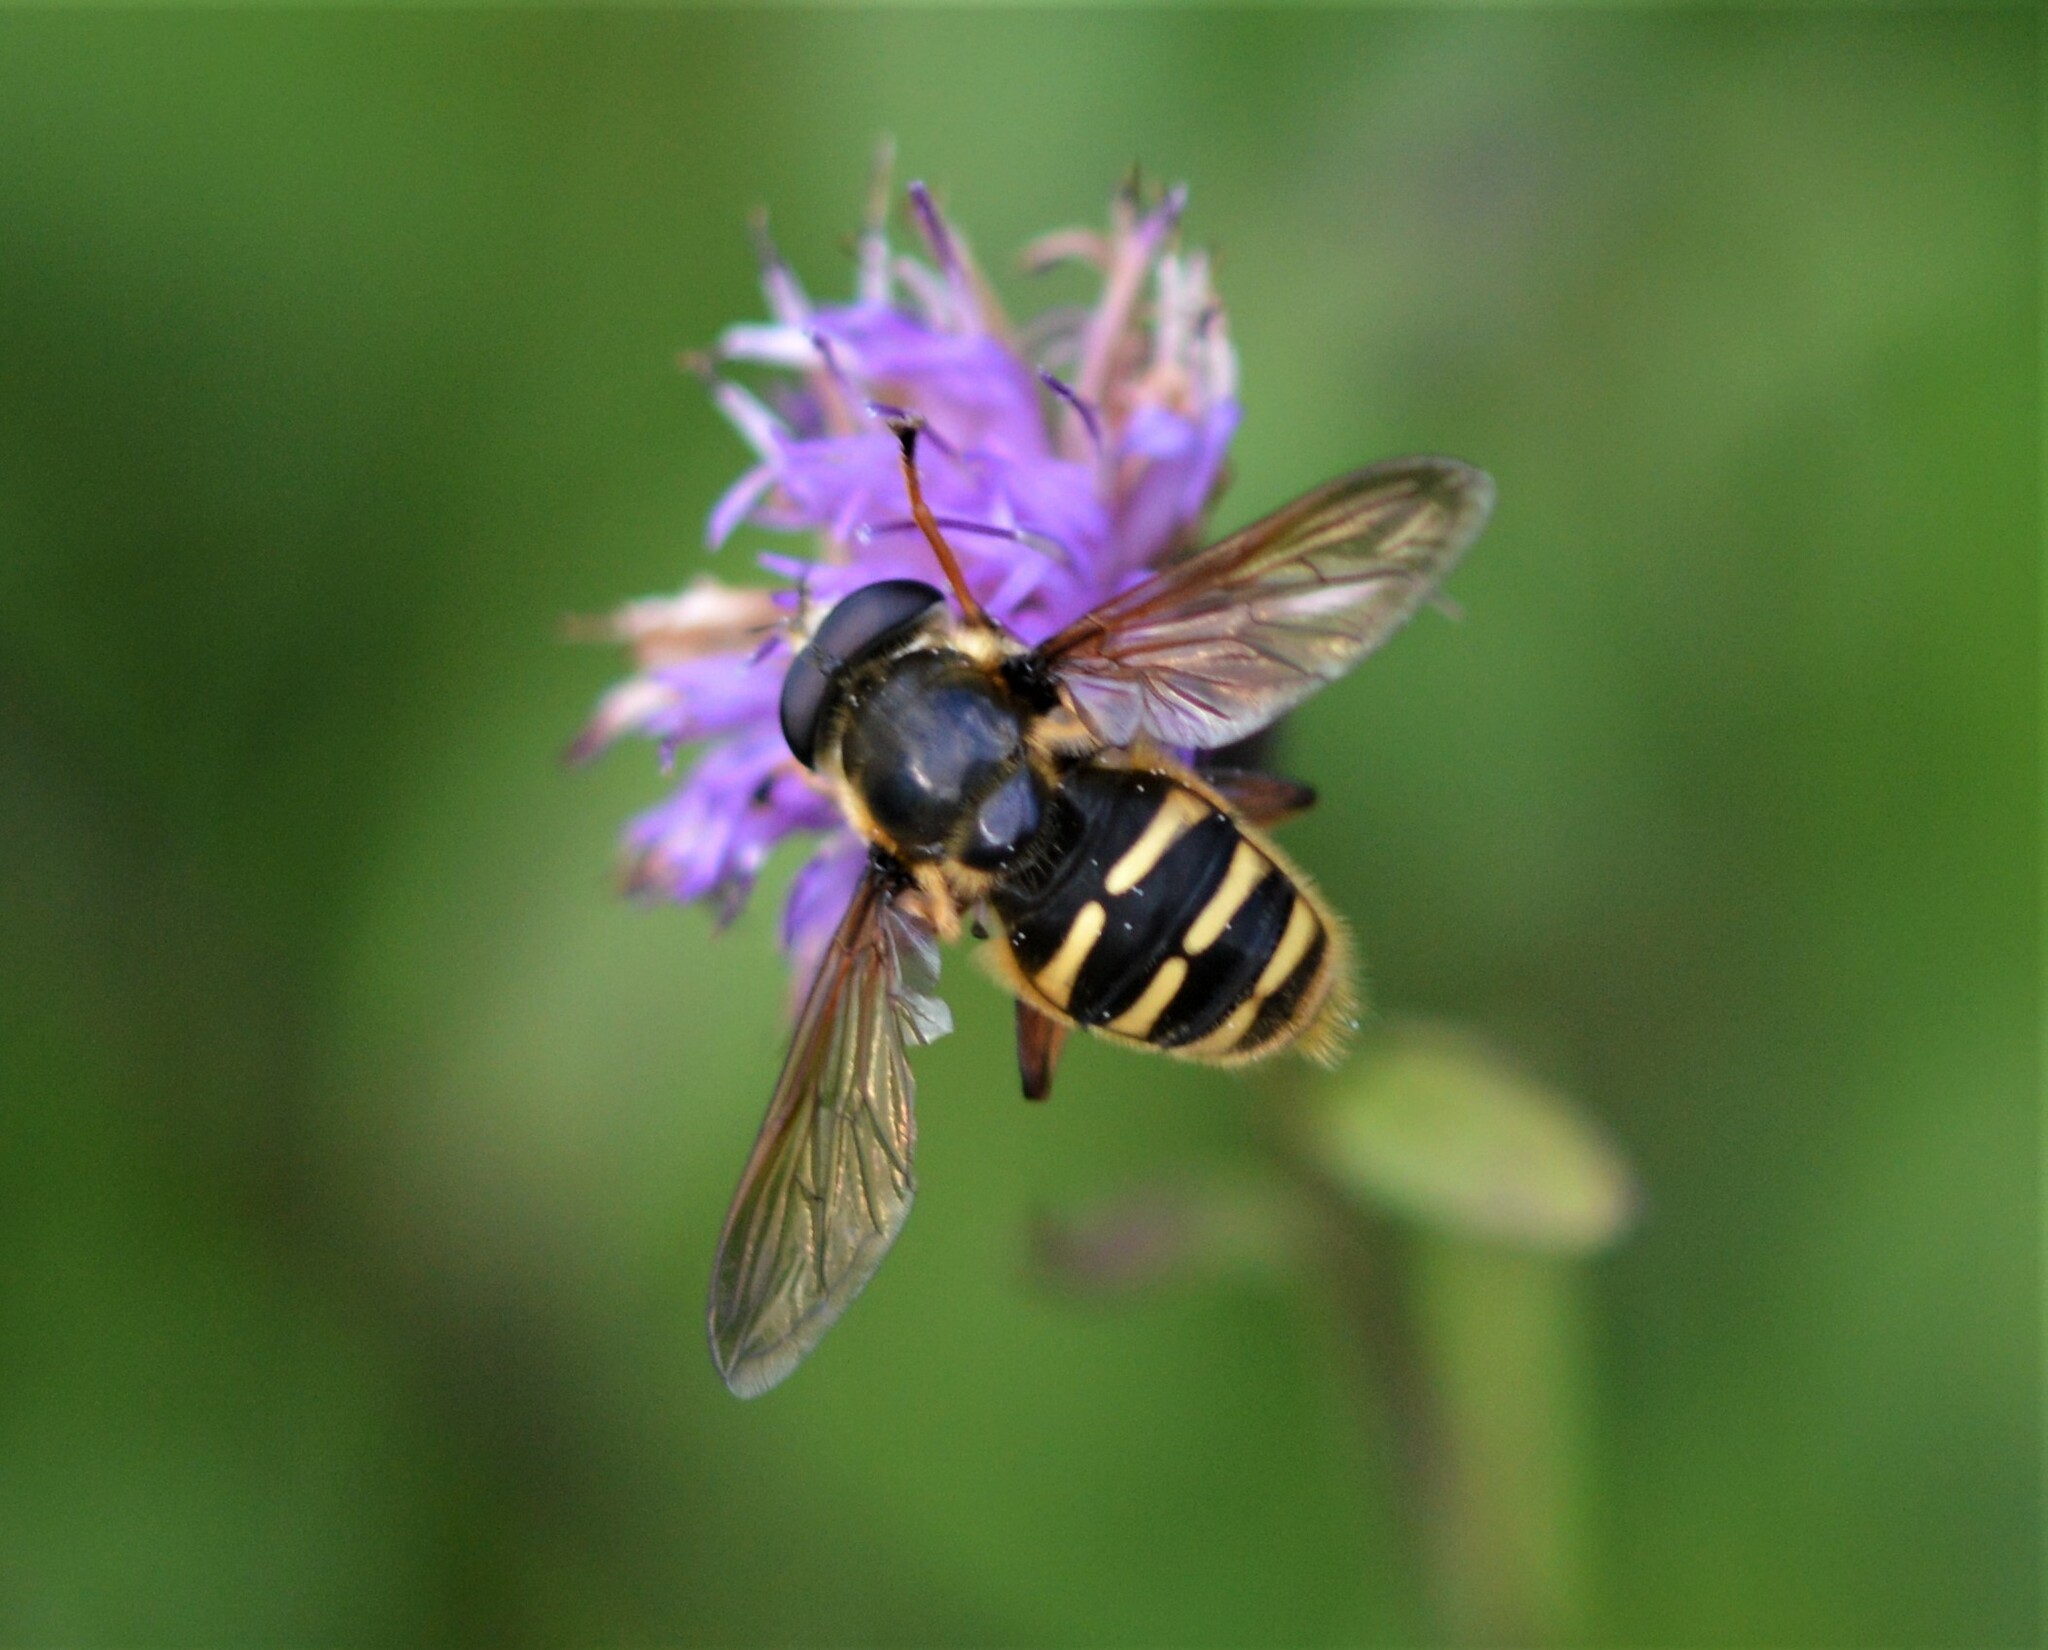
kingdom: Animalia
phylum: Arthropoda
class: Insecta
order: Diptera
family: Syrphidae
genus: Sericomyia
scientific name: Sericomyia silentis
